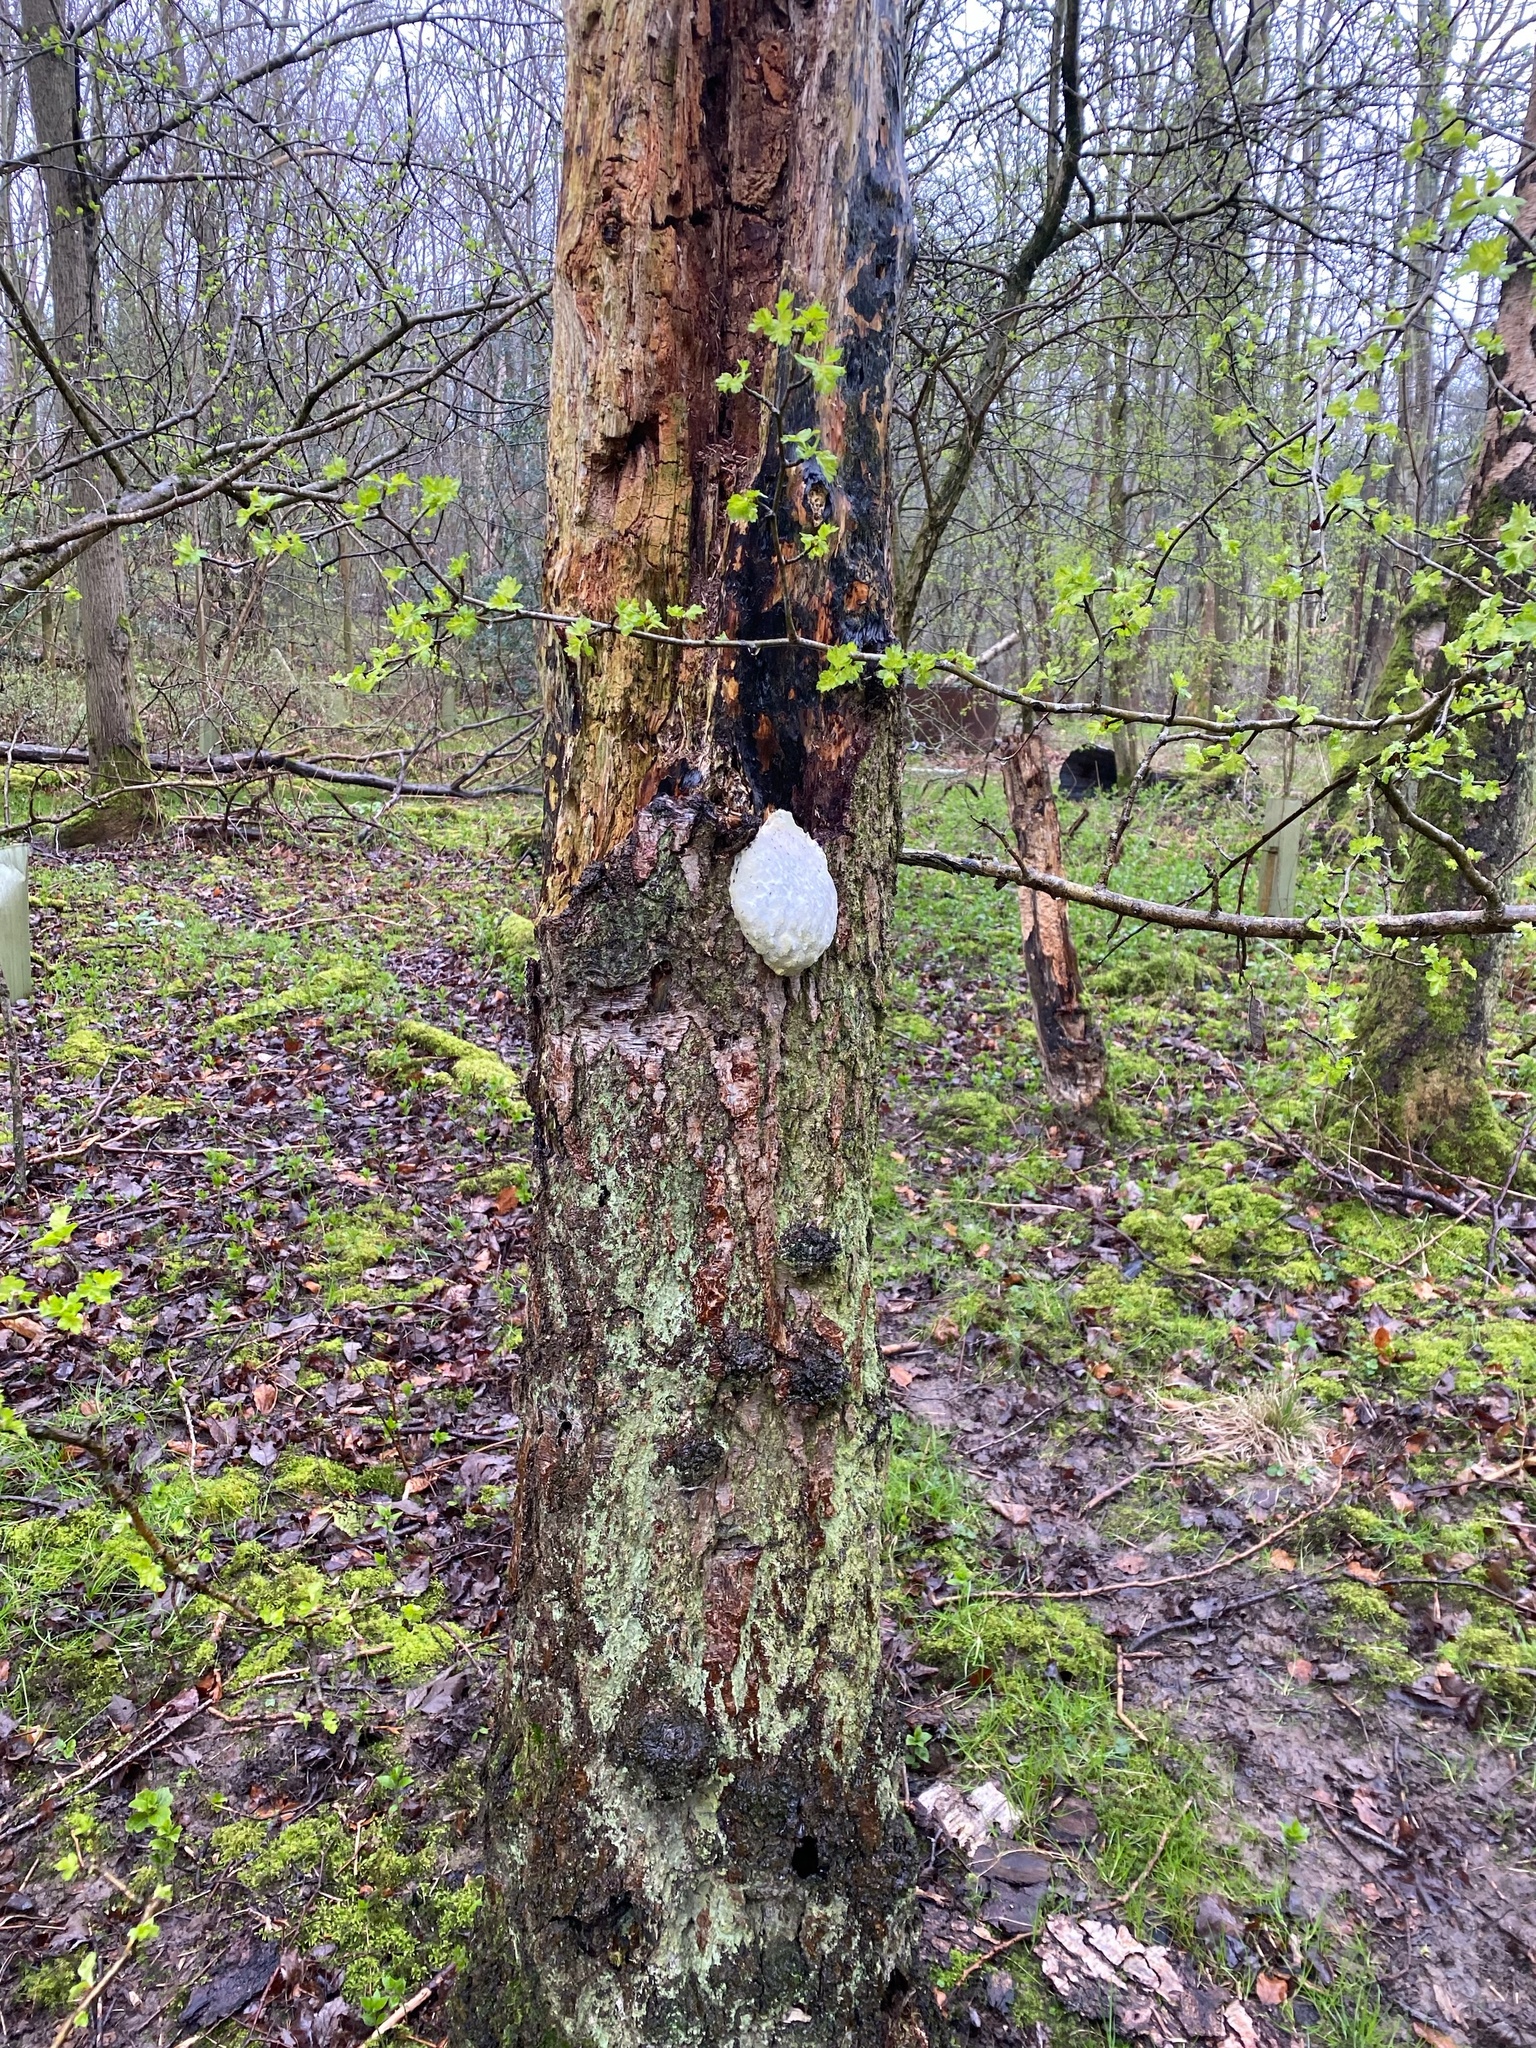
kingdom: Protozoa
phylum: Mycetozoa
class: Myxomycetes
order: Cribrariales
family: Tubiferaceae
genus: Reticularia
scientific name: Reticularia lycoperdon
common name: False puffball
